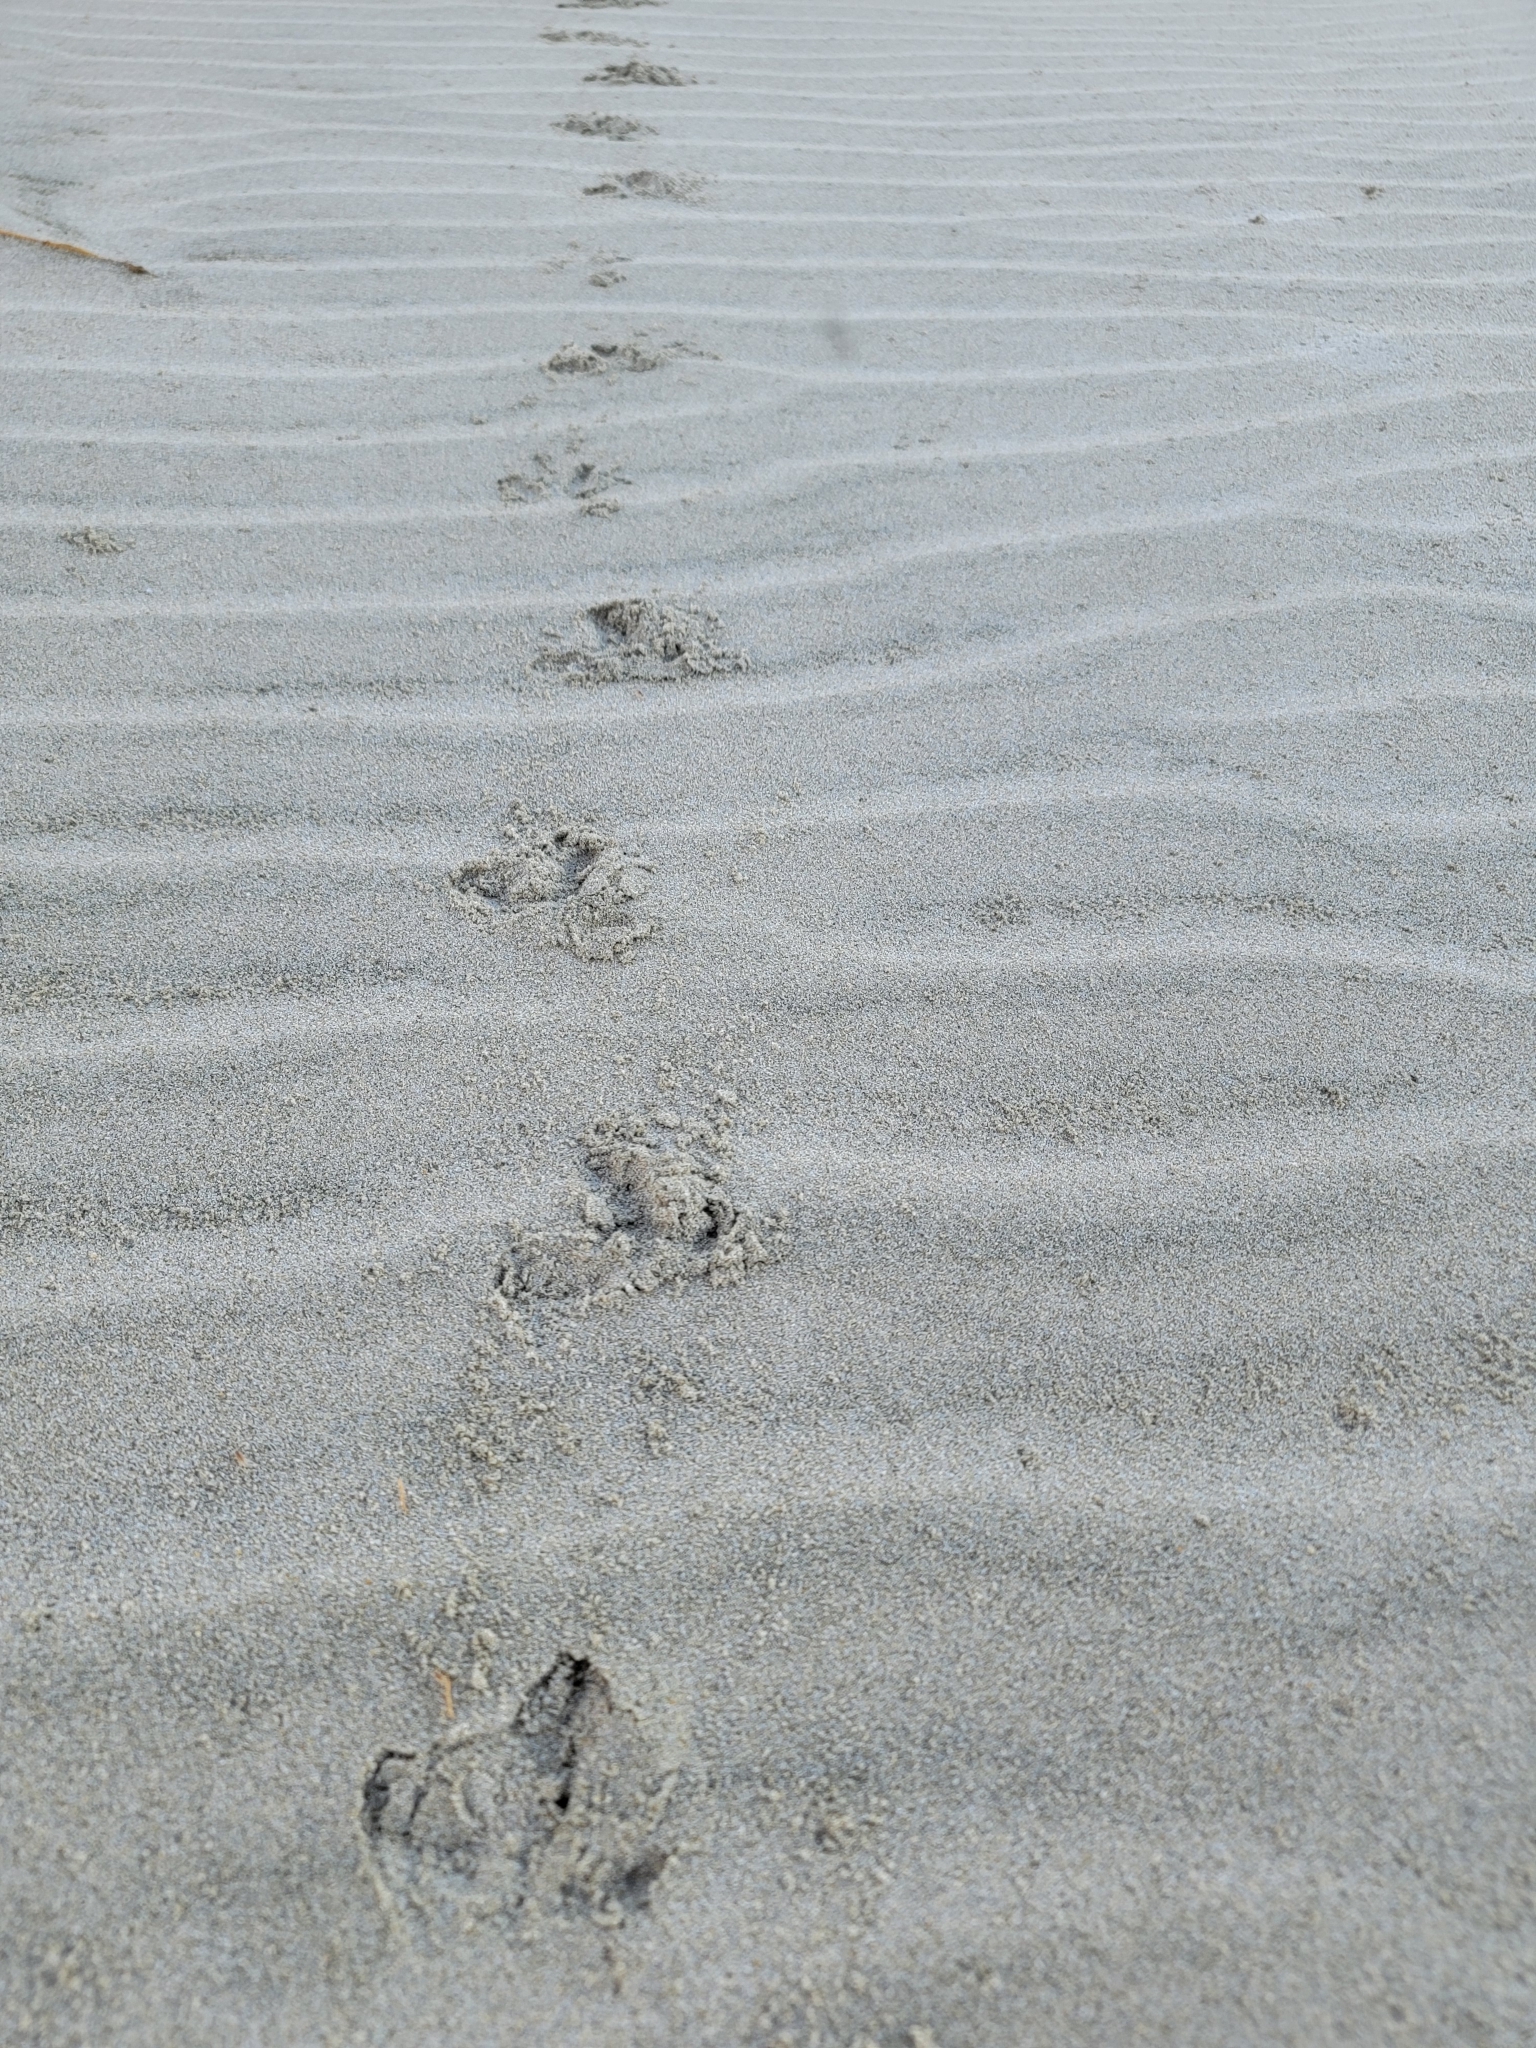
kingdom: Animalia
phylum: Chordata
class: Aves
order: Apterygiformes
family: Apterygidae
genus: Apteryx
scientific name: Apteryx australis
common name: Southern brown kiwi
